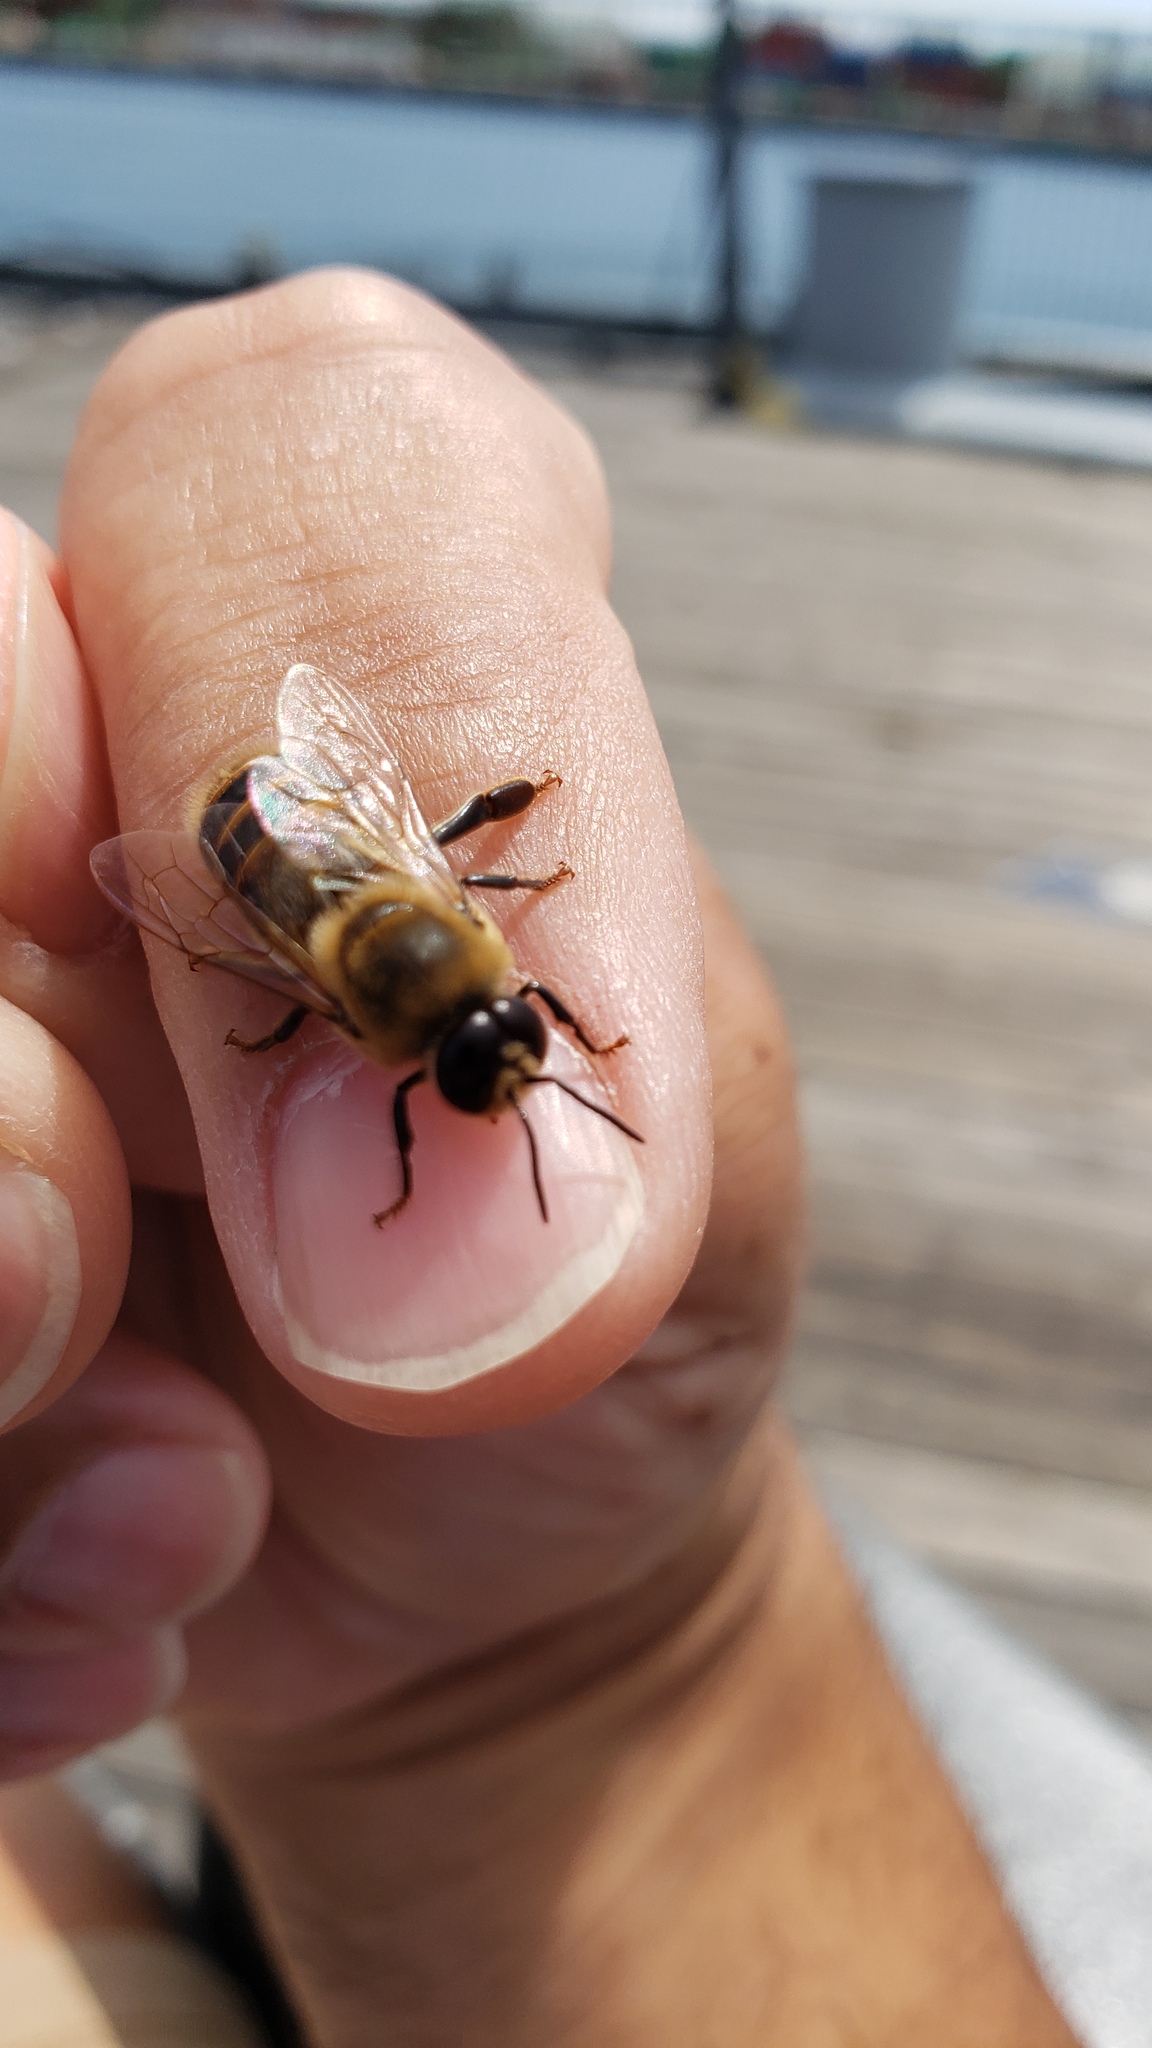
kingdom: Animalia
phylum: Arthropoda
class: Insecta
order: Hymenoptera
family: Apidae
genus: Apis
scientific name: Apis mellifera
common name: Honey bee
